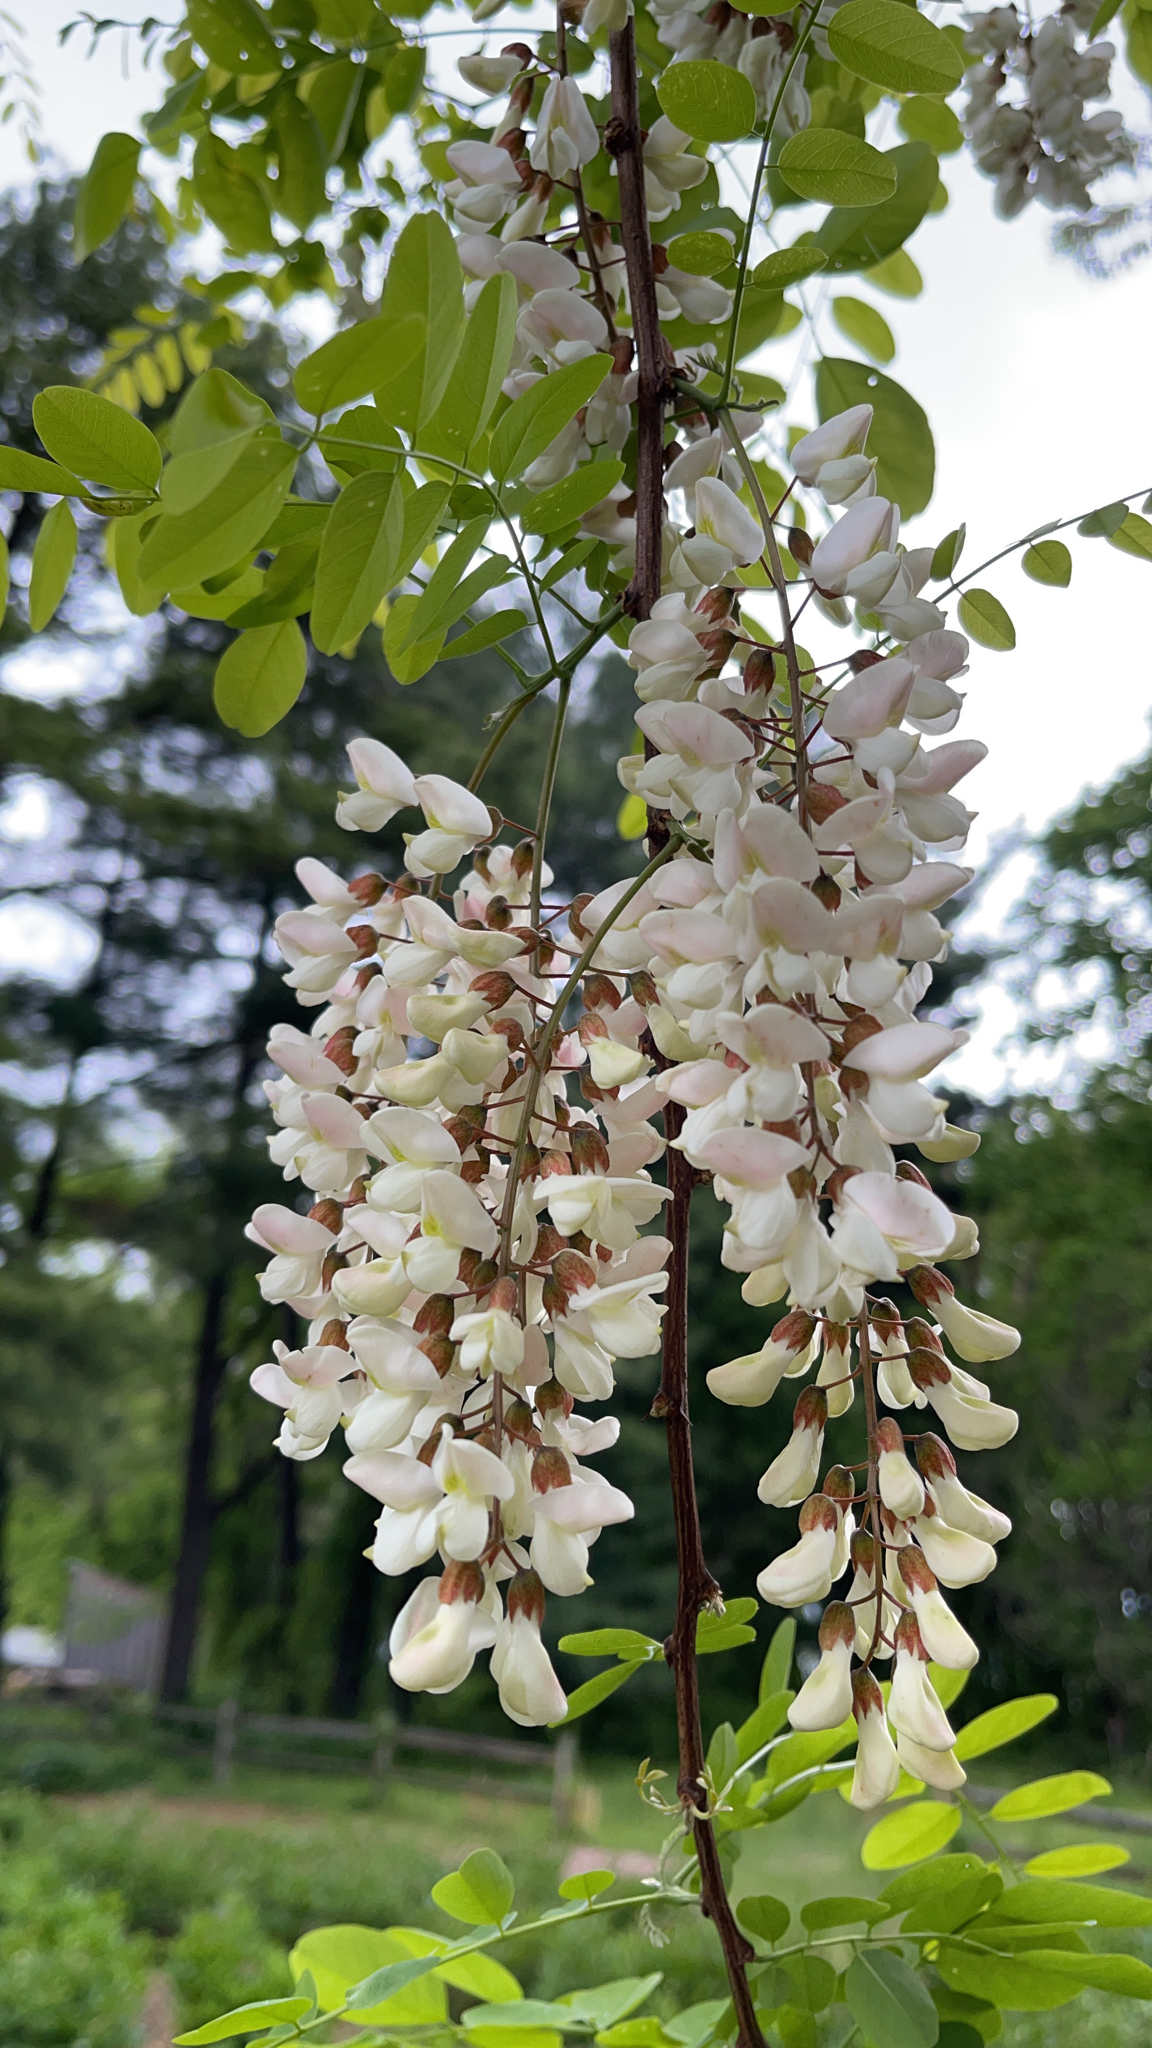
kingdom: Plantae
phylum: Tracheophyta
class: Magnoliopsida
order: Fabales
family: Fabaceae
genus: Robinia
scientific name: Robinia pseudoacacia
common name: Black locust
